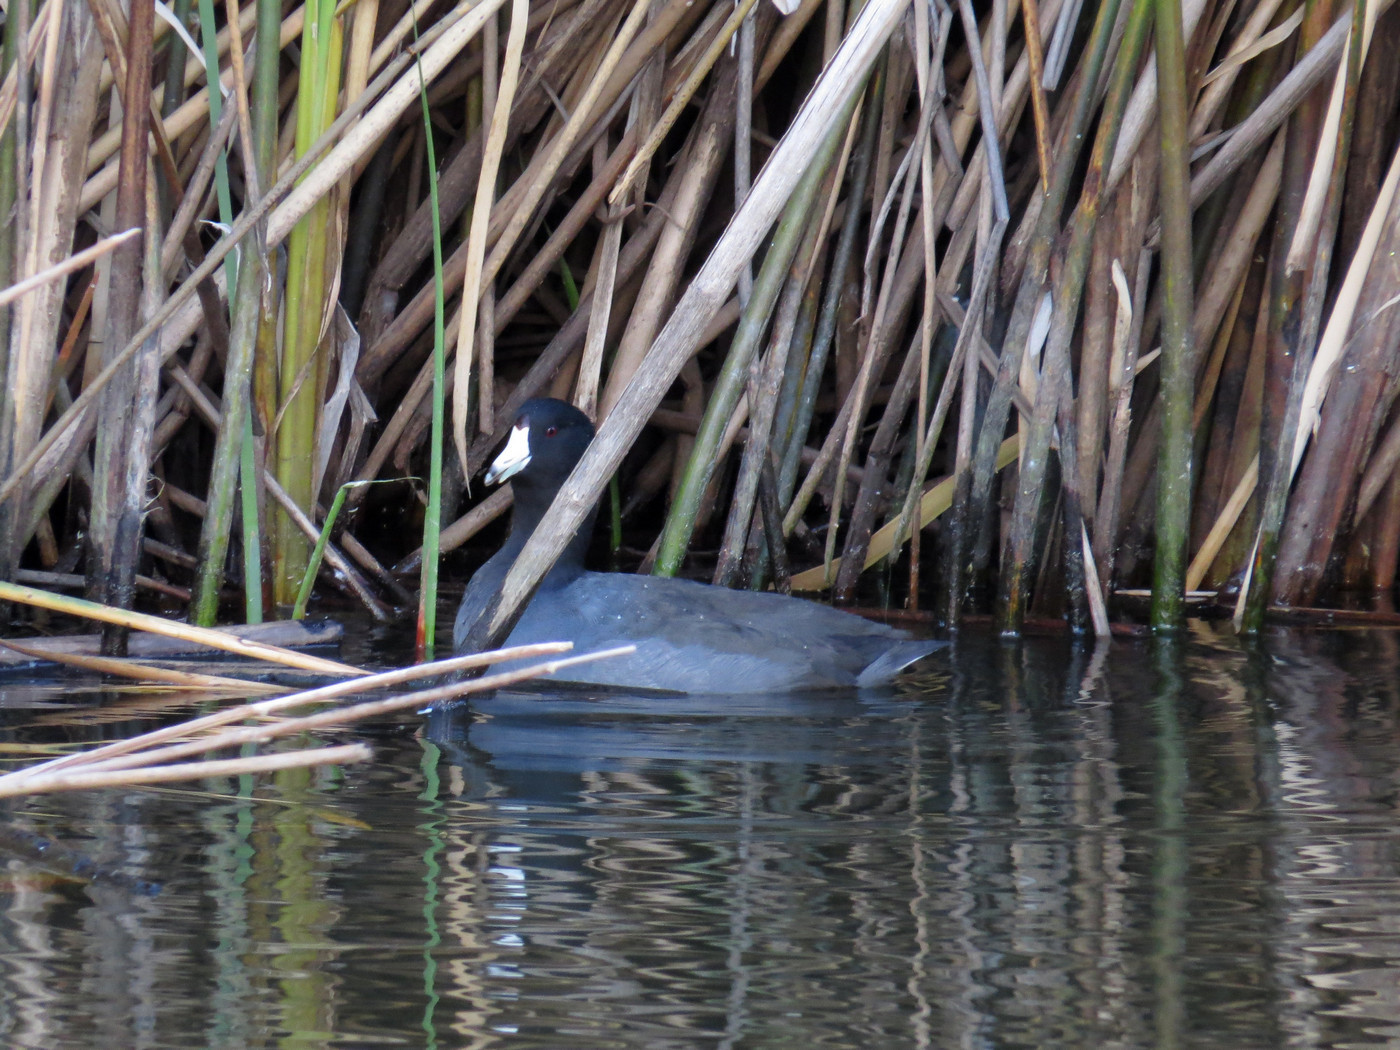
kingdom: Animalia
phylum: Chordata
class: Aves
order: Gruiformes
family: Rallidae
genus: Fulica
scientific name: Fulica americana
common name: American coot
